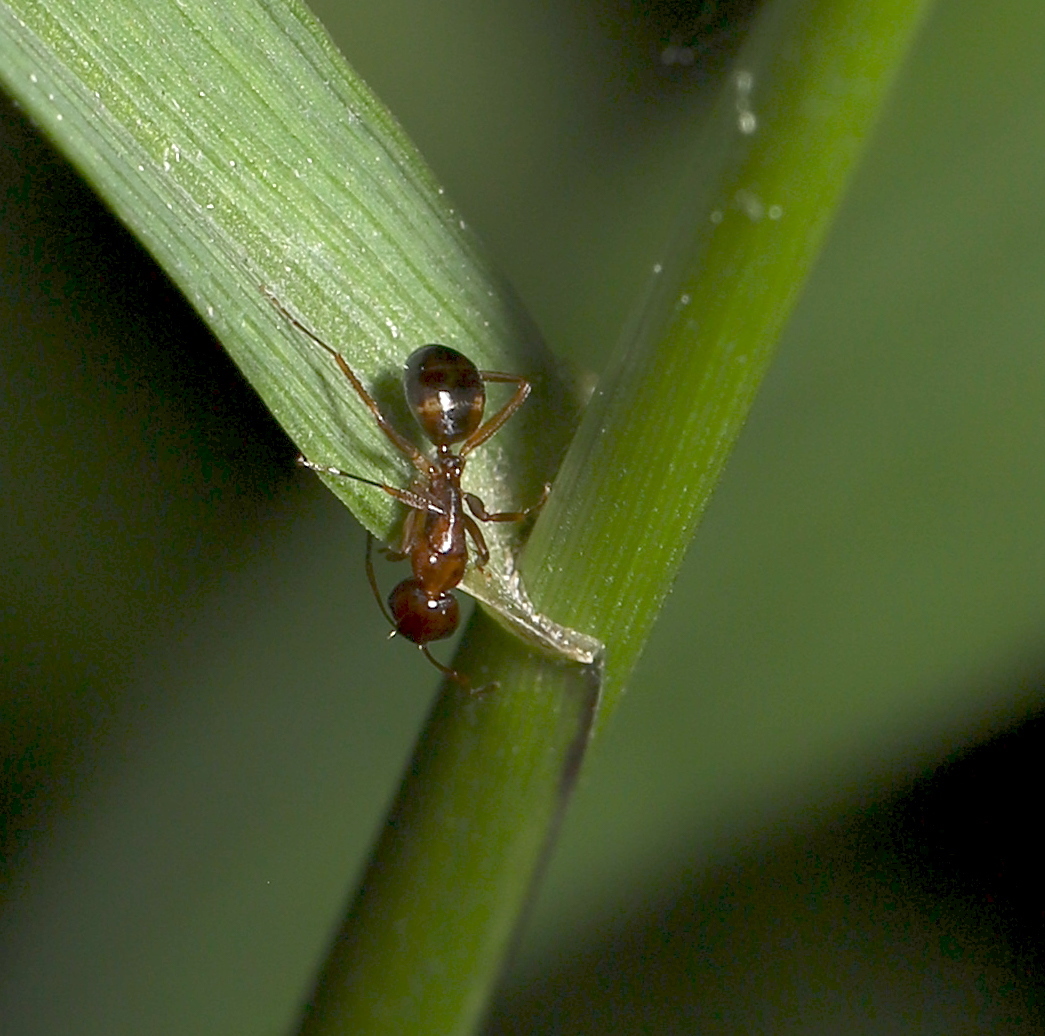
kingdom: Animalia
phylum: Arthropoda
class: Insecta
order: Hymenoptera
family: Formicidae
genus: Camponotus
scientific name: Camponotus subbarbatus
